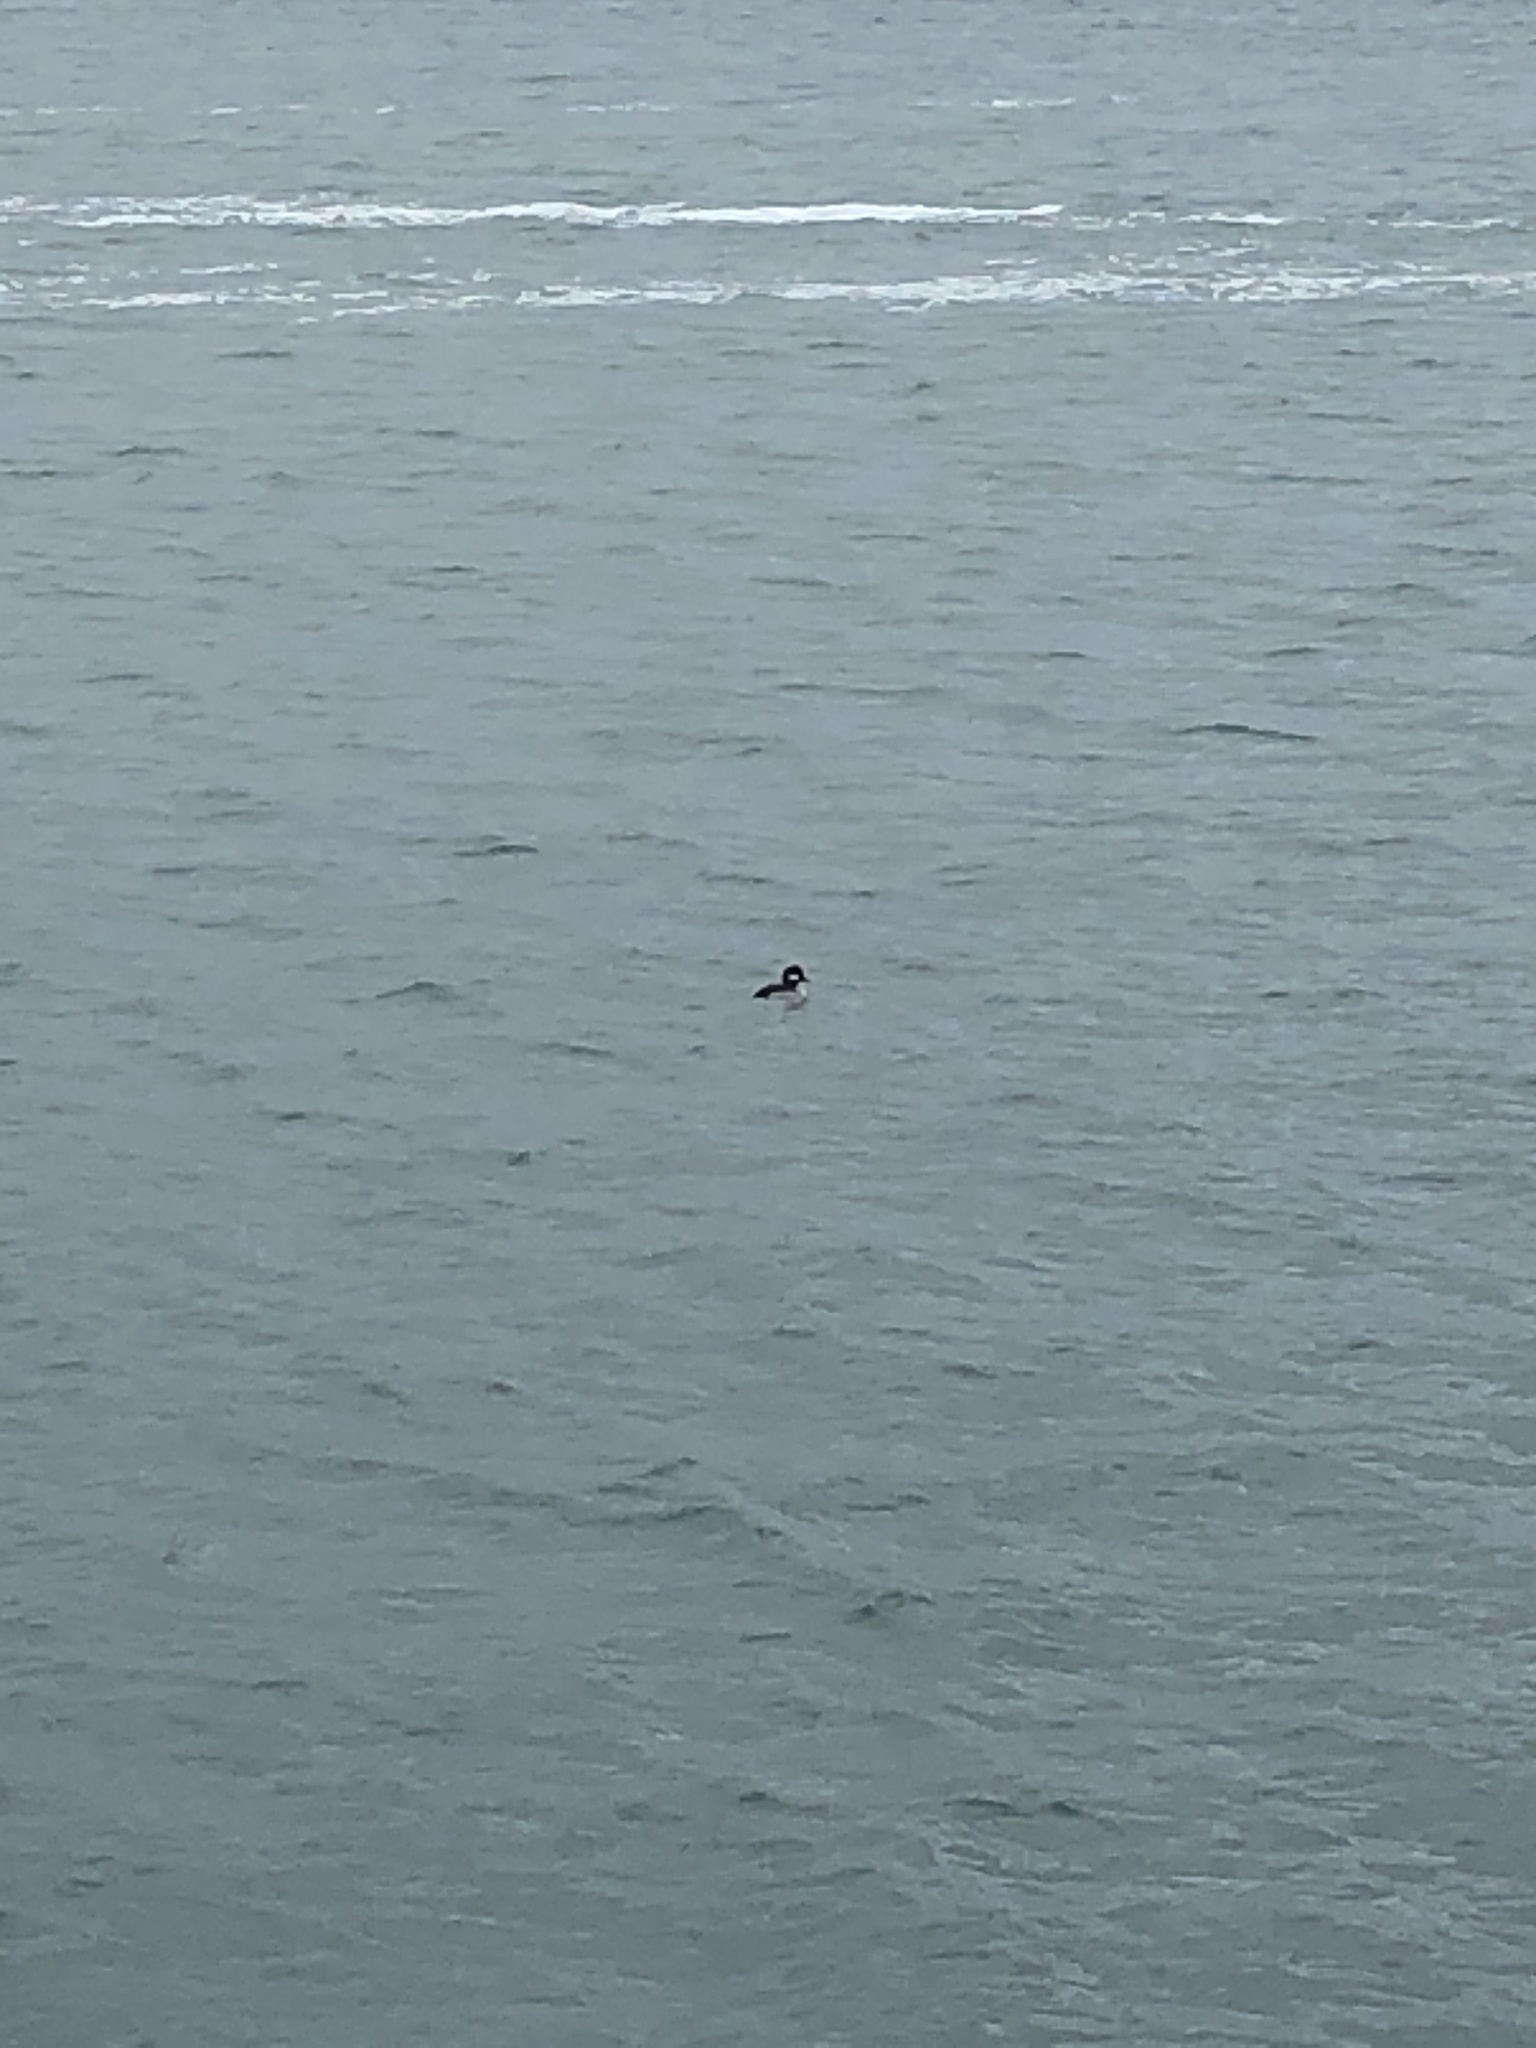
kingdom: Animalia
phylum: Chordata
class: Aves
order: Anseriformes
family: Anatidae
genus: Bucephala
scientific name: Bucephala albeola
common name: Bufflehead
